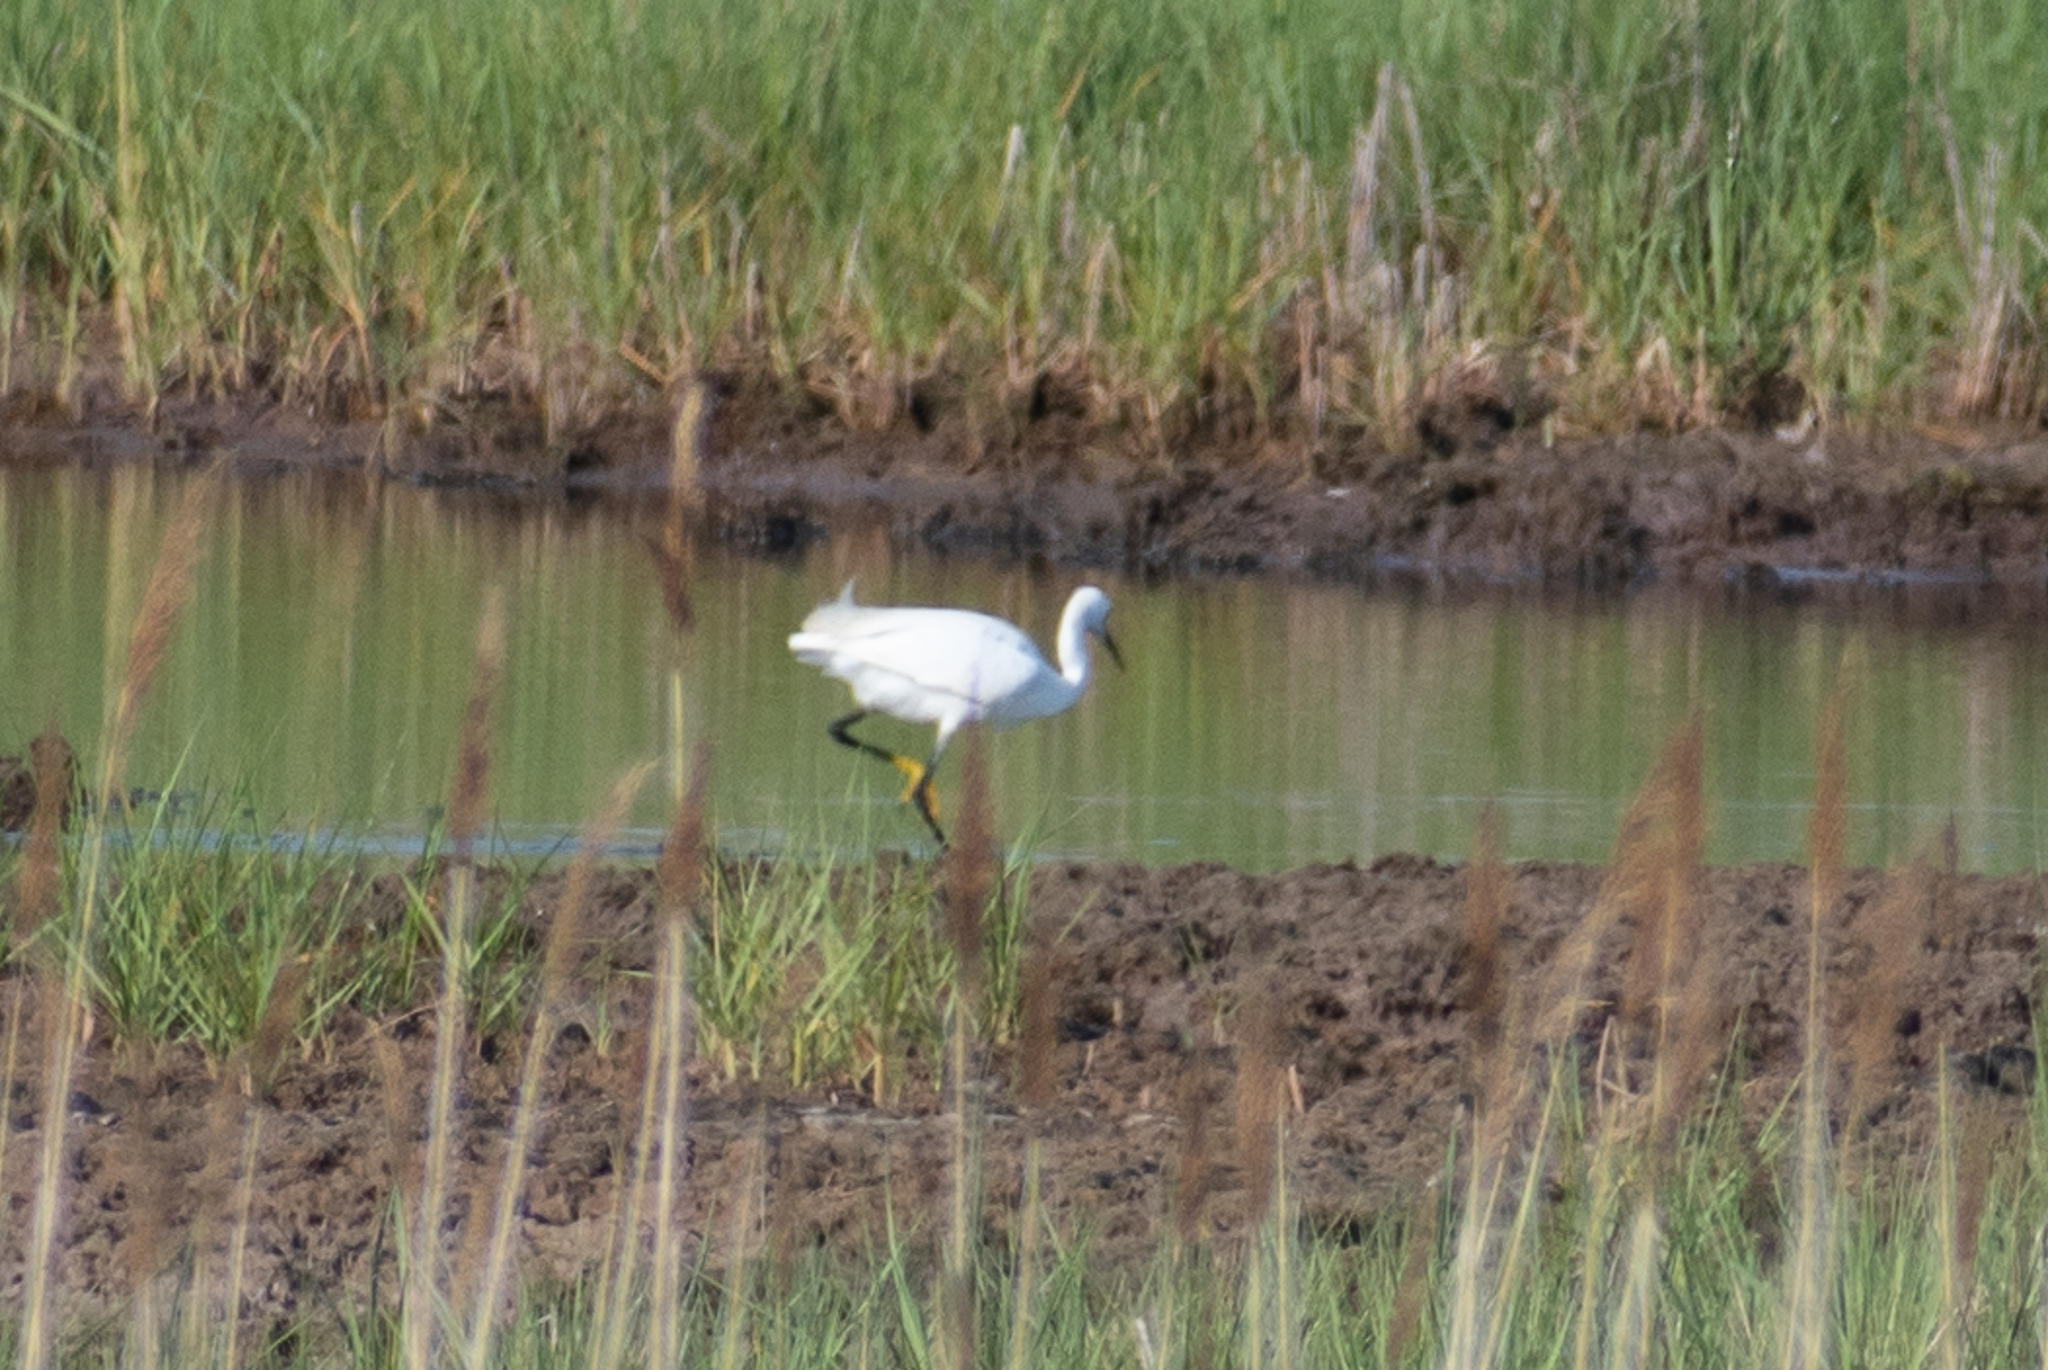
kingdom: Animalia
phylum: Chordata
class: Aves
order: Pelecaniformes
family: Ardeidae
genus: Egretta
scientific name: Egretta thula
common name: Snowy egret
